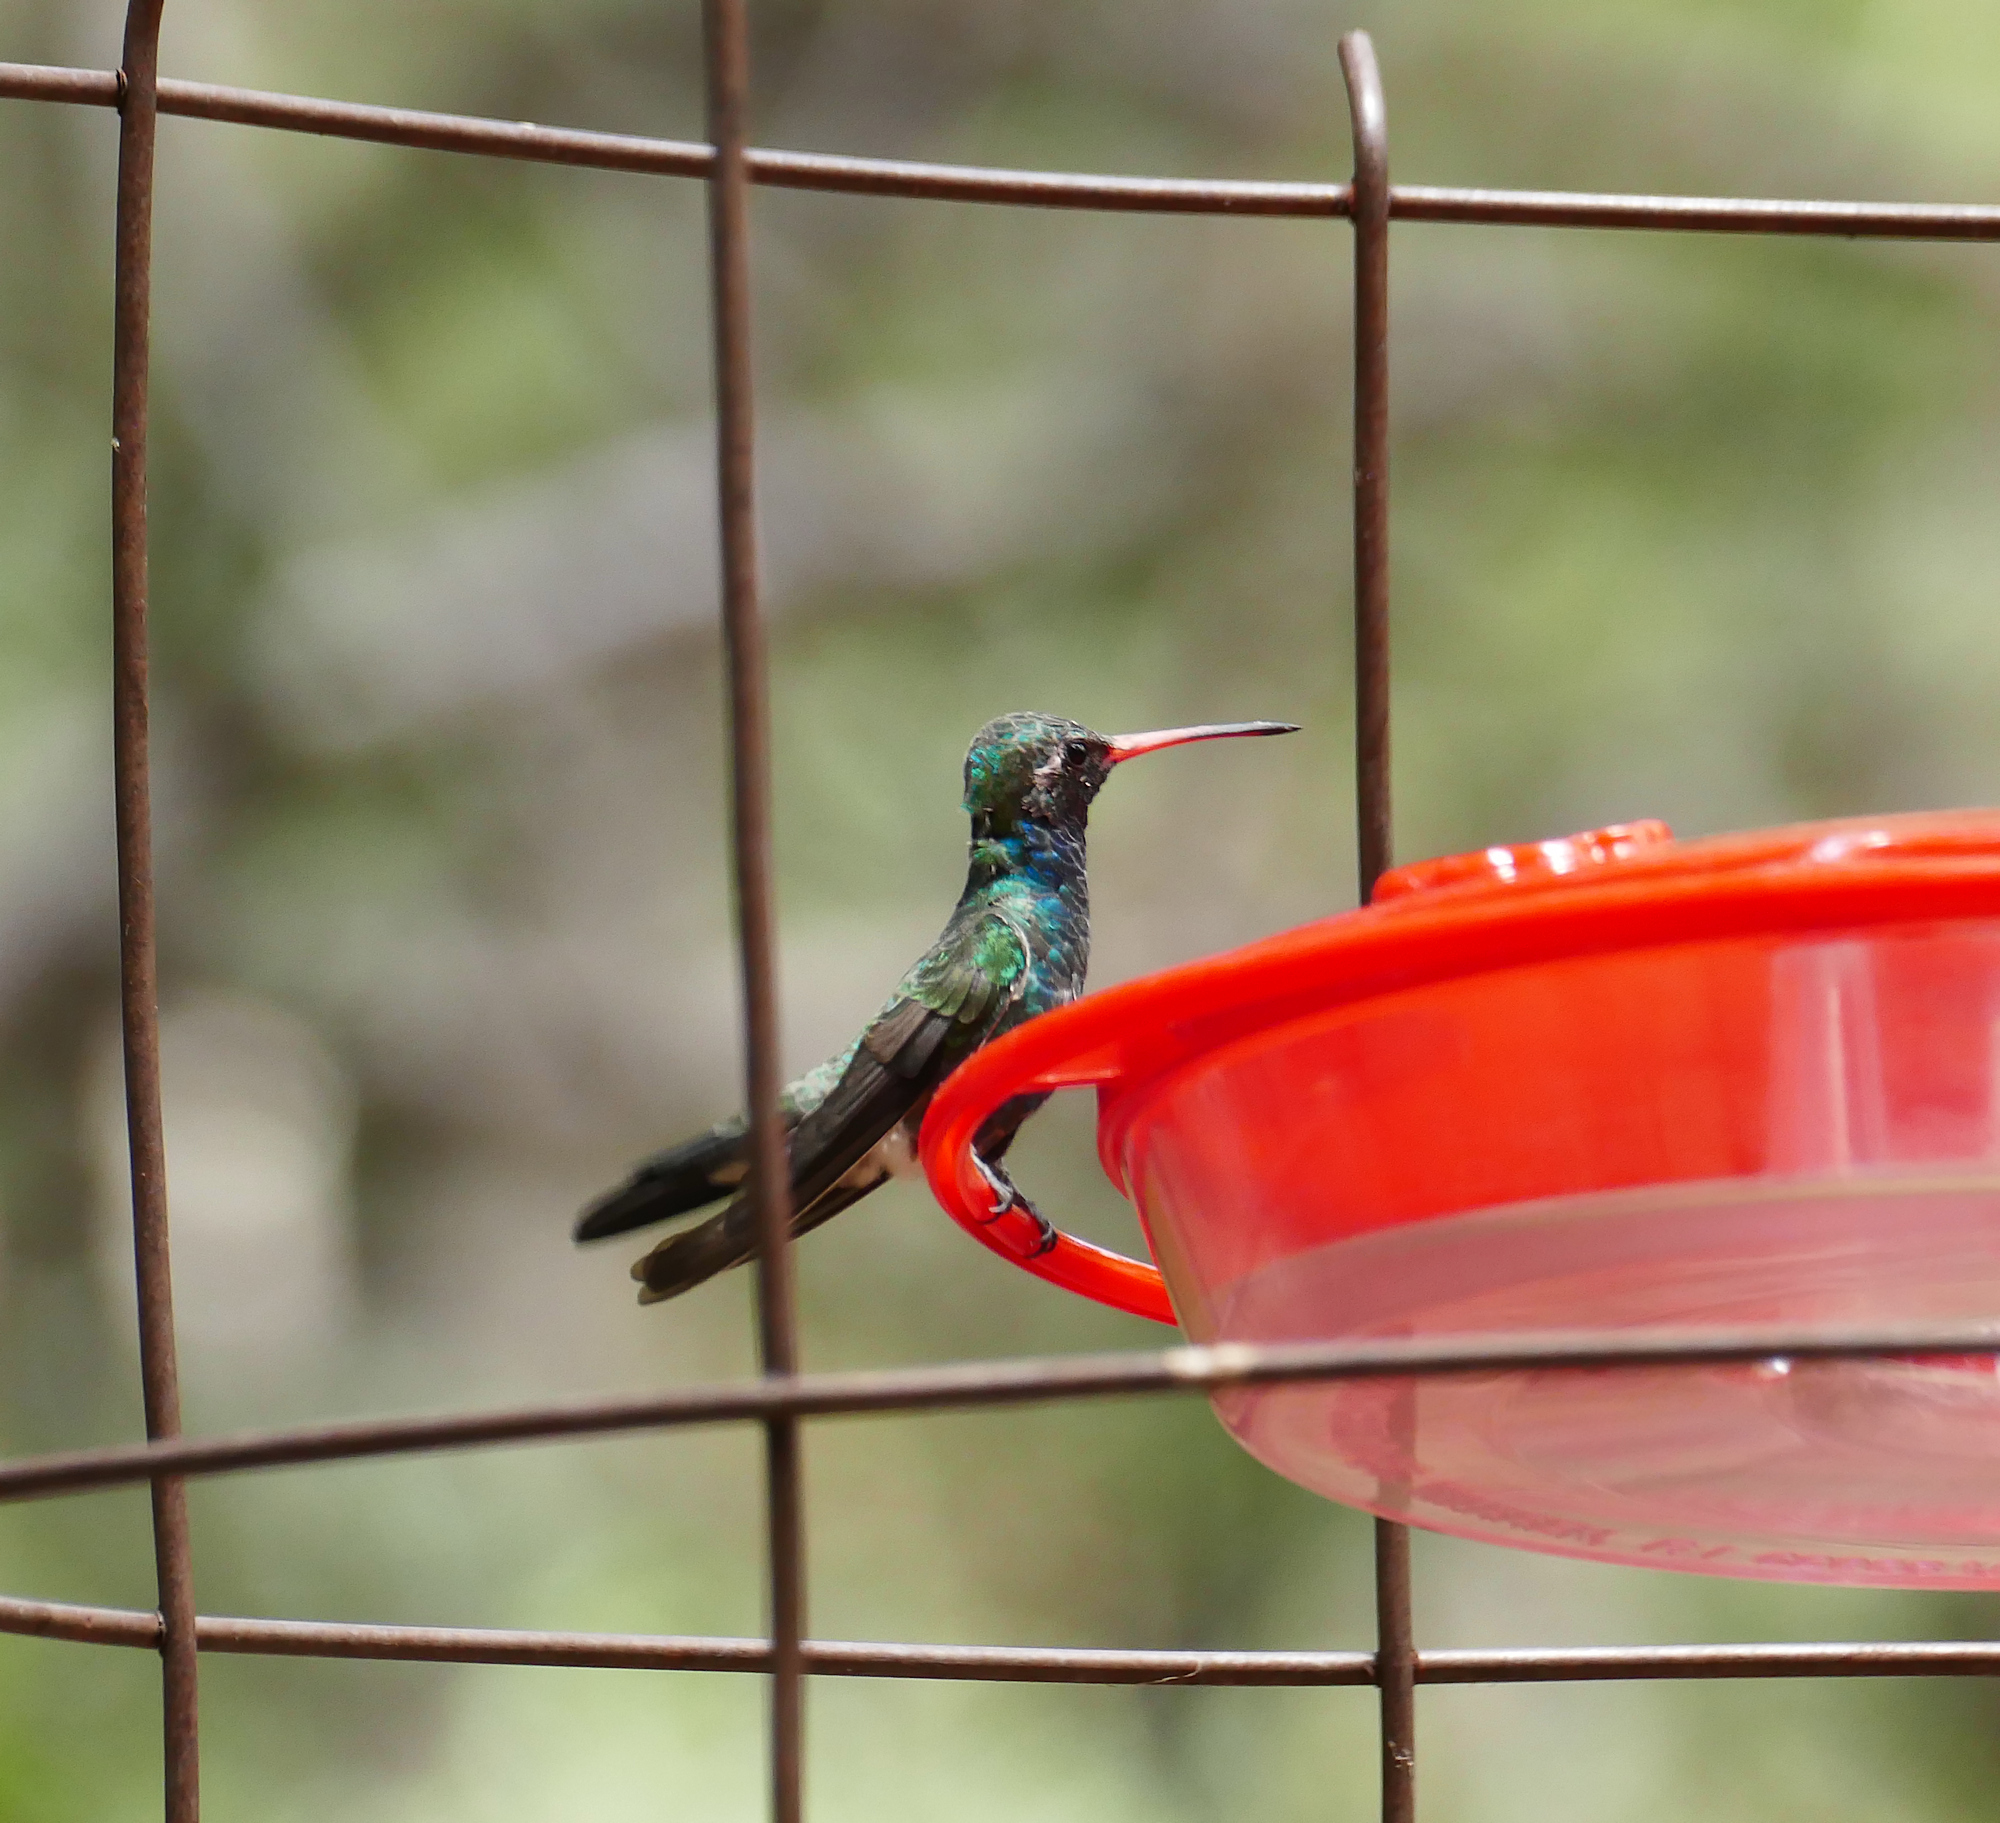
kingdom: Animalia
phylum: Chordata
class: Aves
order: Apodiformes
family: Trochilidae
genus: Cynanthus
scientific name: Cynanthus latirostris
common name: Broad-billed hummingbird
